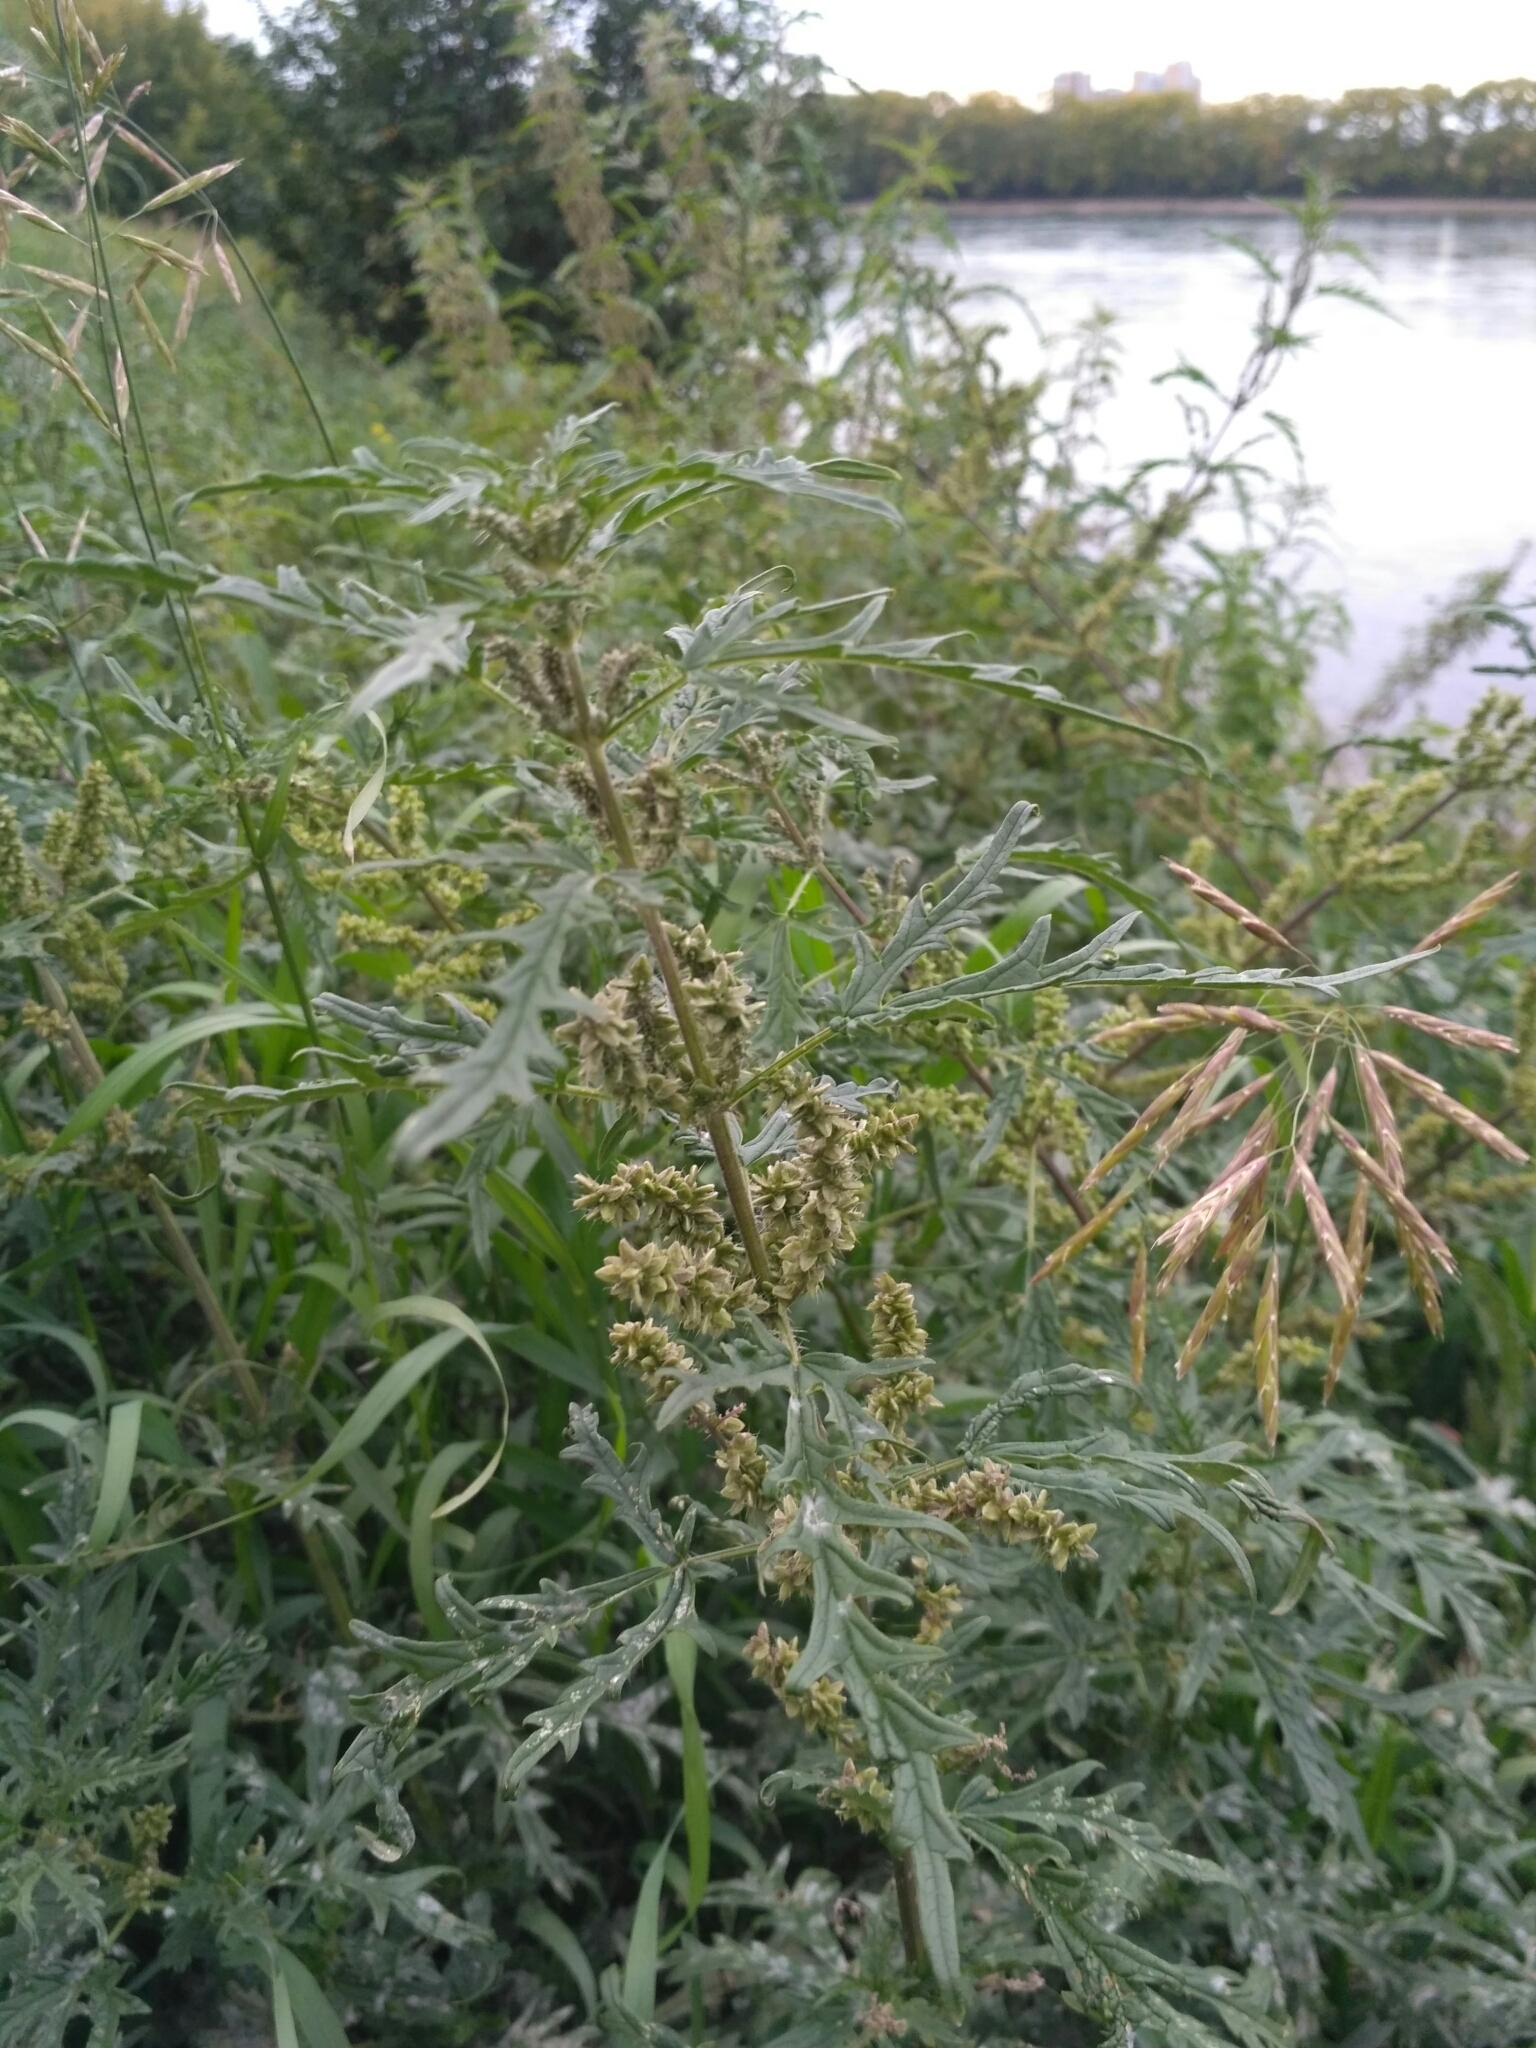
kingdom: Plantae
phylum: Tracheophyta
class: Magnoliopsida
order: Rosales
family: Urticaceae
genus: Urtica
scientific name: Urtica cannabina
